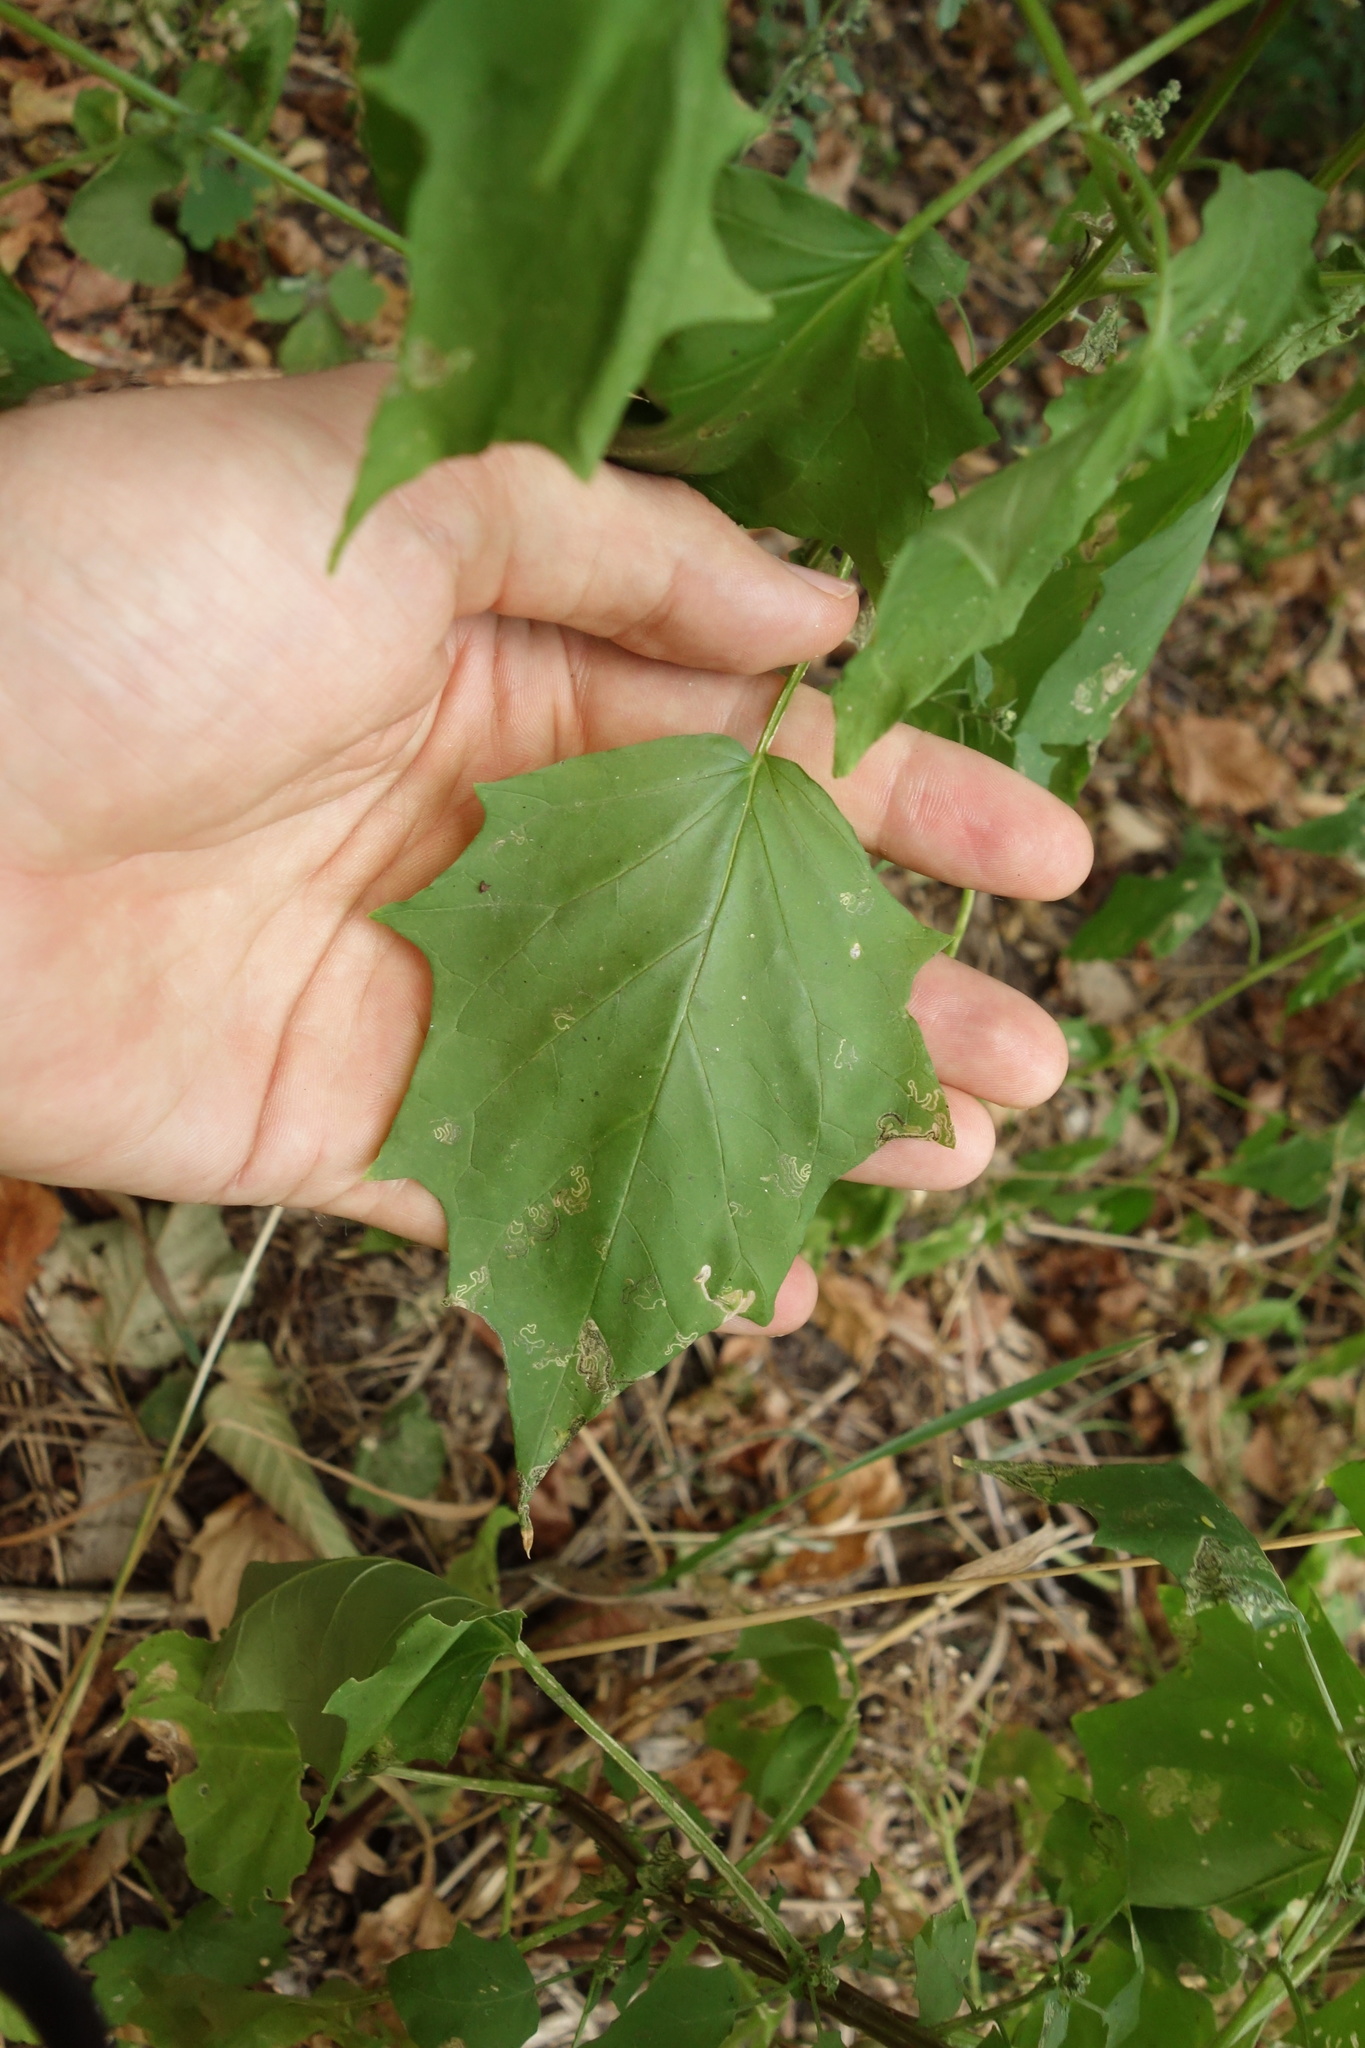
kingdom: Plantae
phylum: Tracheophyta
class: Magnoliopsida
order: Caryophyllales
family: Amaranthaceae
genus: Chenopodiastrum
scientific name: Chenopodiastrum hybridum
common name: Mapleleaf goosefoot
